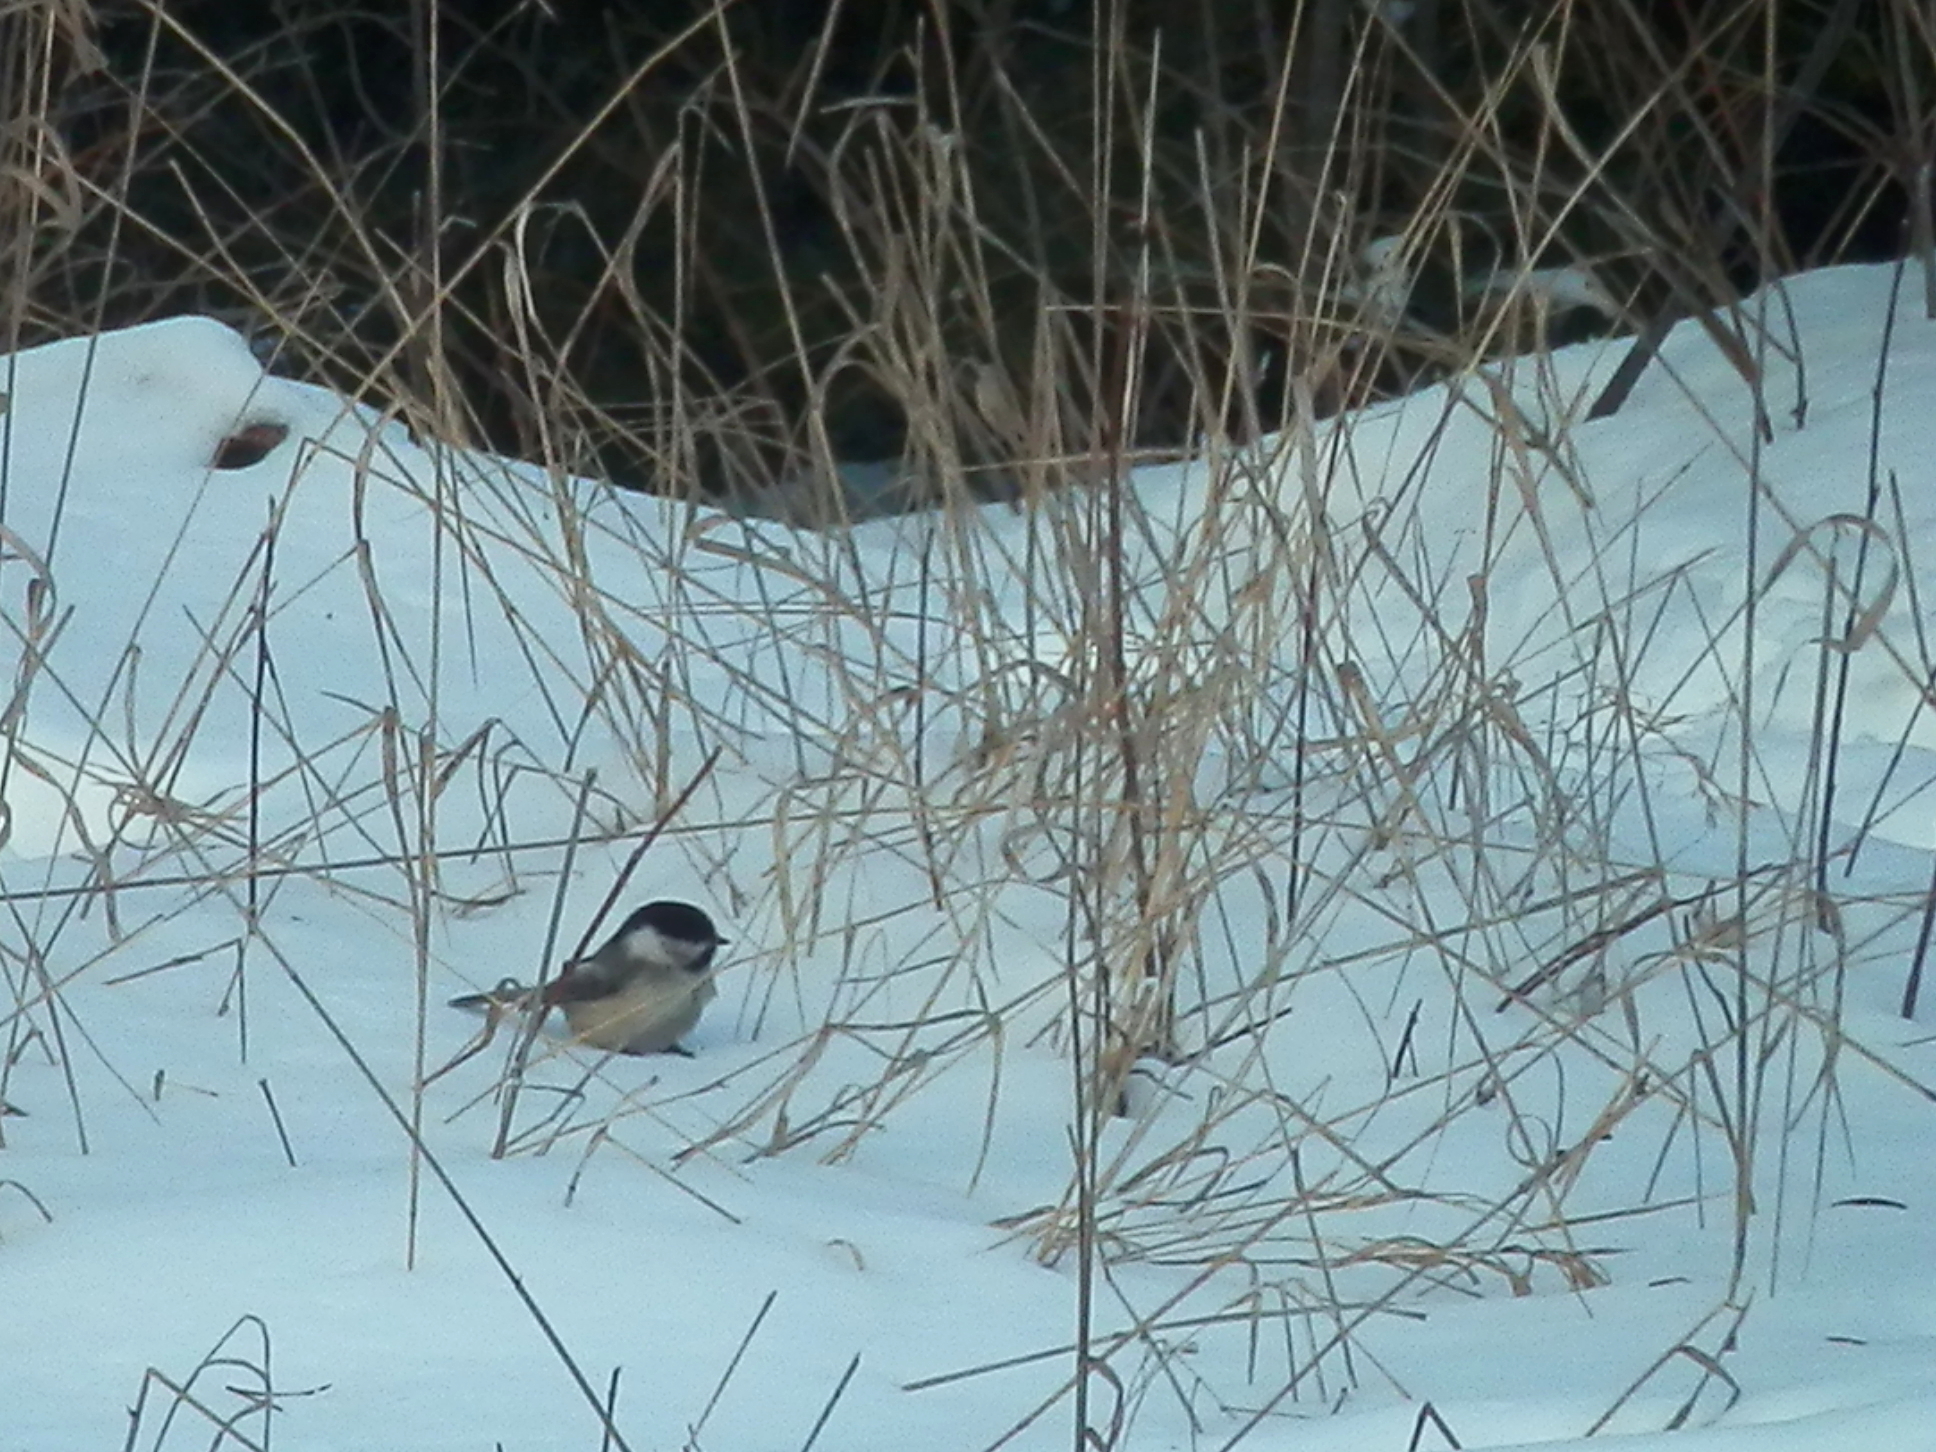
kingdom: Animalia
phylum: Chordata
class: Aves
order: Passeriformes
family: Paridae
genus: Poecile
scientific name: Poecile atricapillus
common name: Black-capped chickadee
